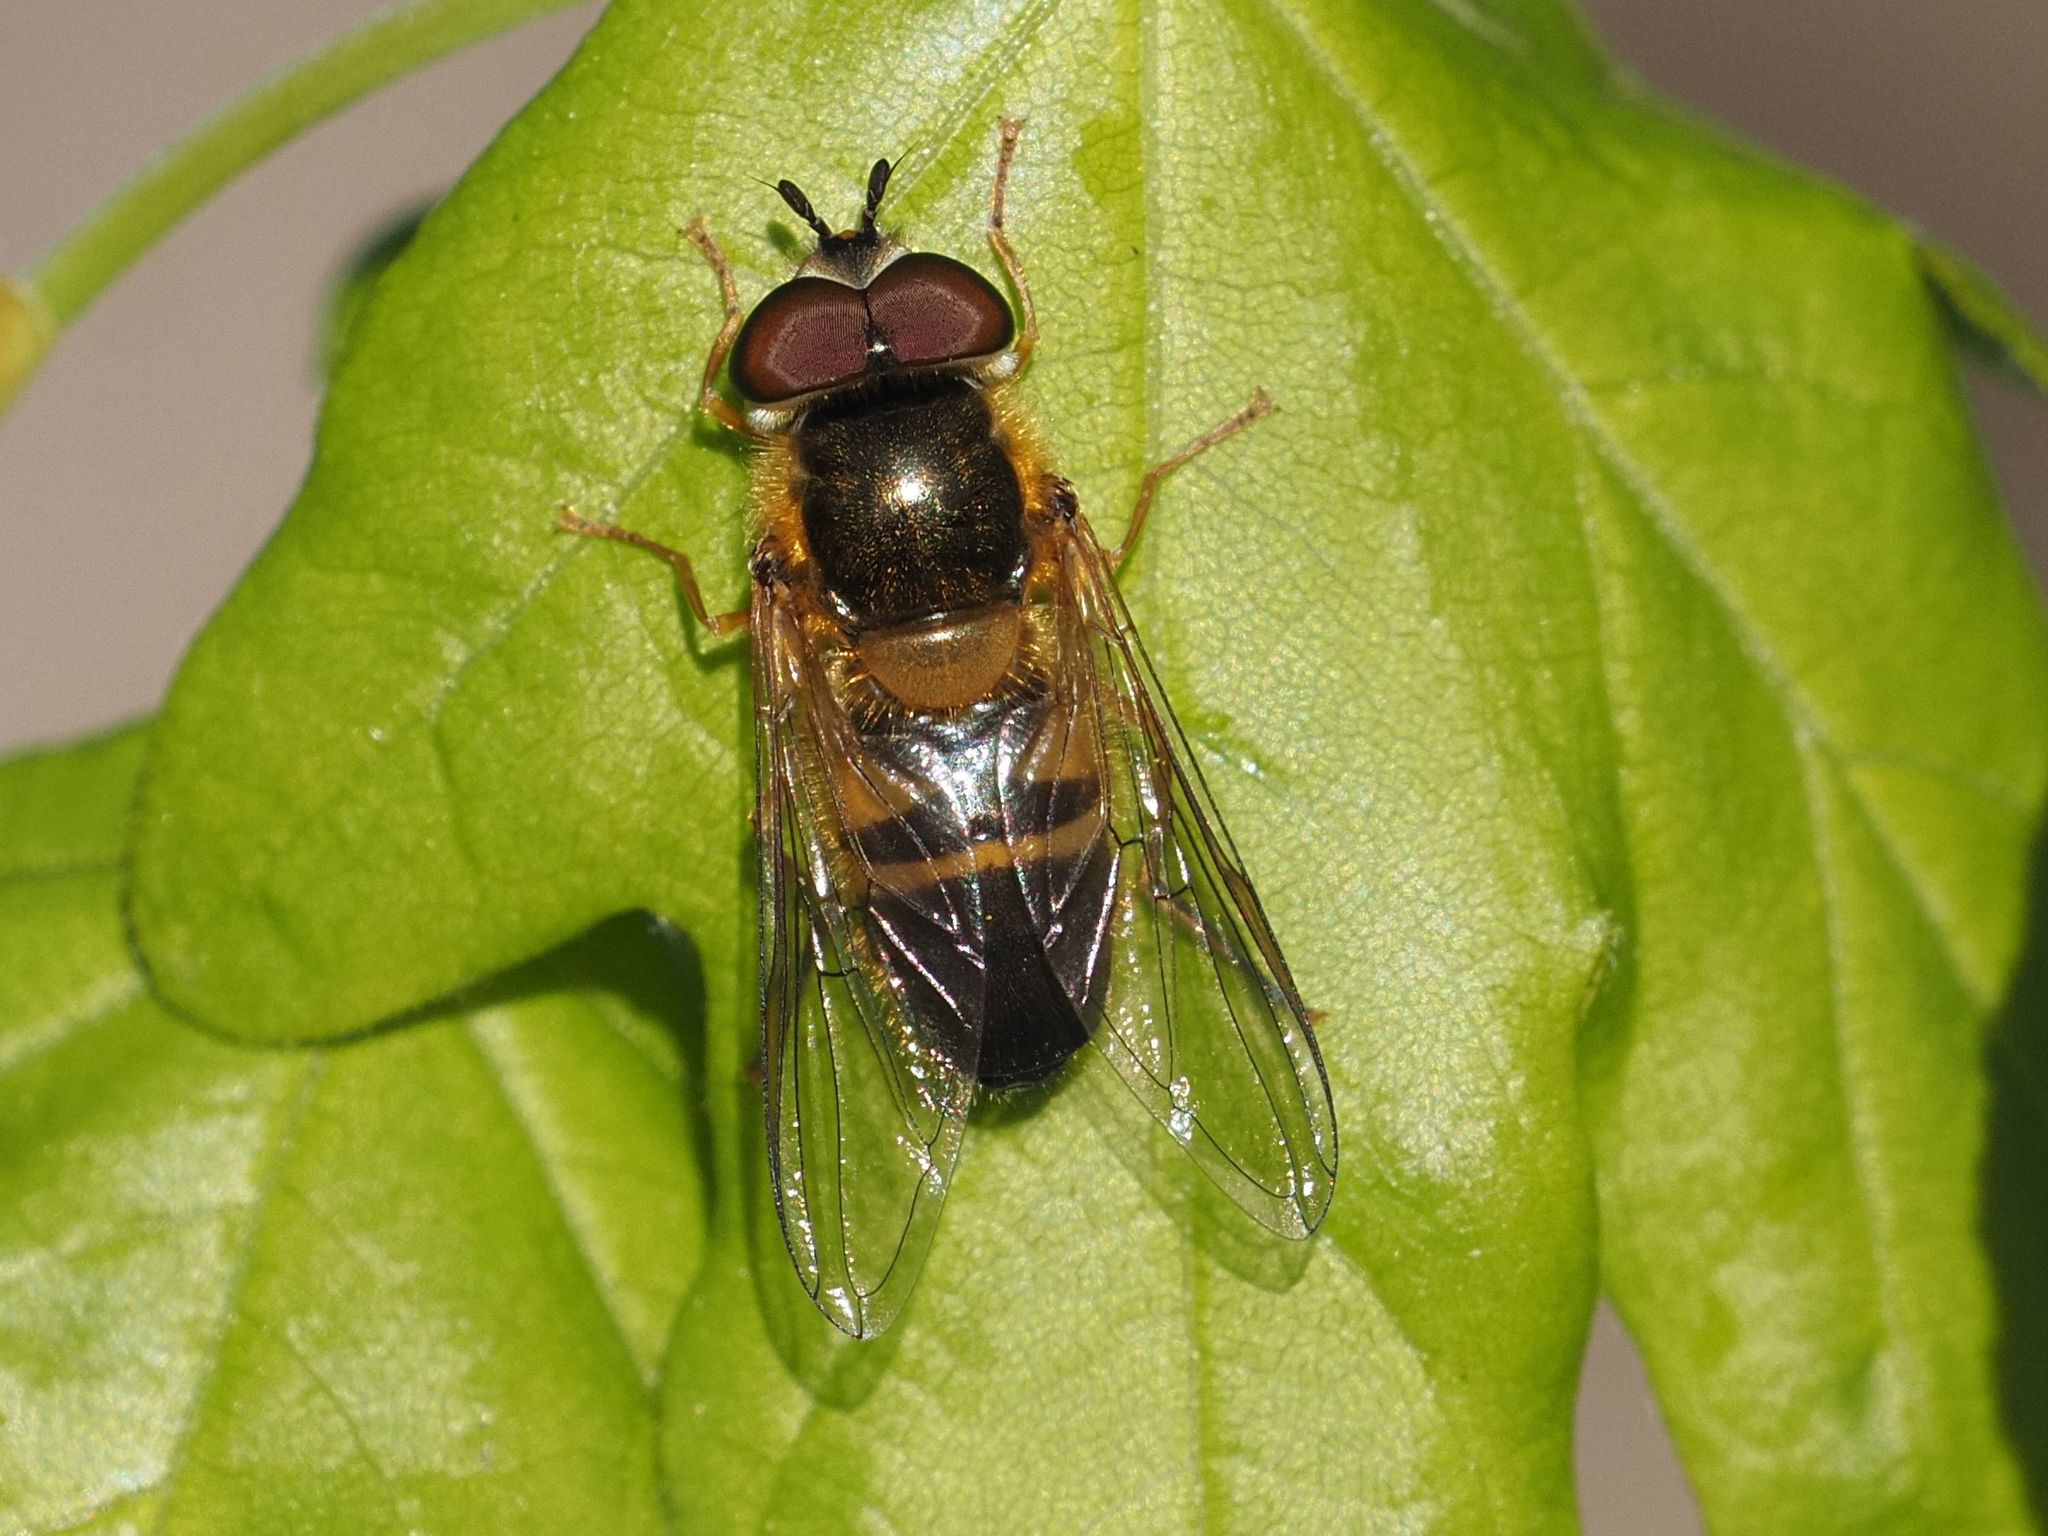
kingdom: Animalia
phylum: Arthropoda
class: Insecta
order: Diptera
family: Syrphidae
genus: Epistrophe
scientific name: Epistrophe eligans
